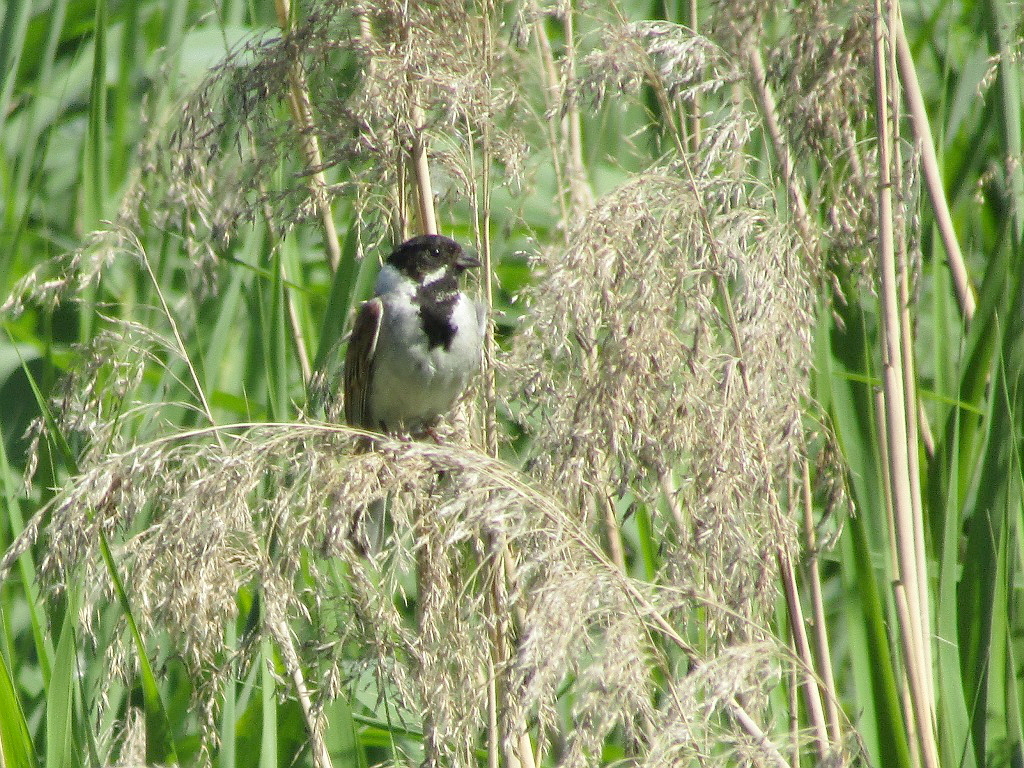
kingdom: Animalia
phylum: Chordata
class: Aves
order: Passeriformes
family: Emberizidae
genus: Emberiza
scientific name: Emberiza schoeniclus
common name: Reed bunting
